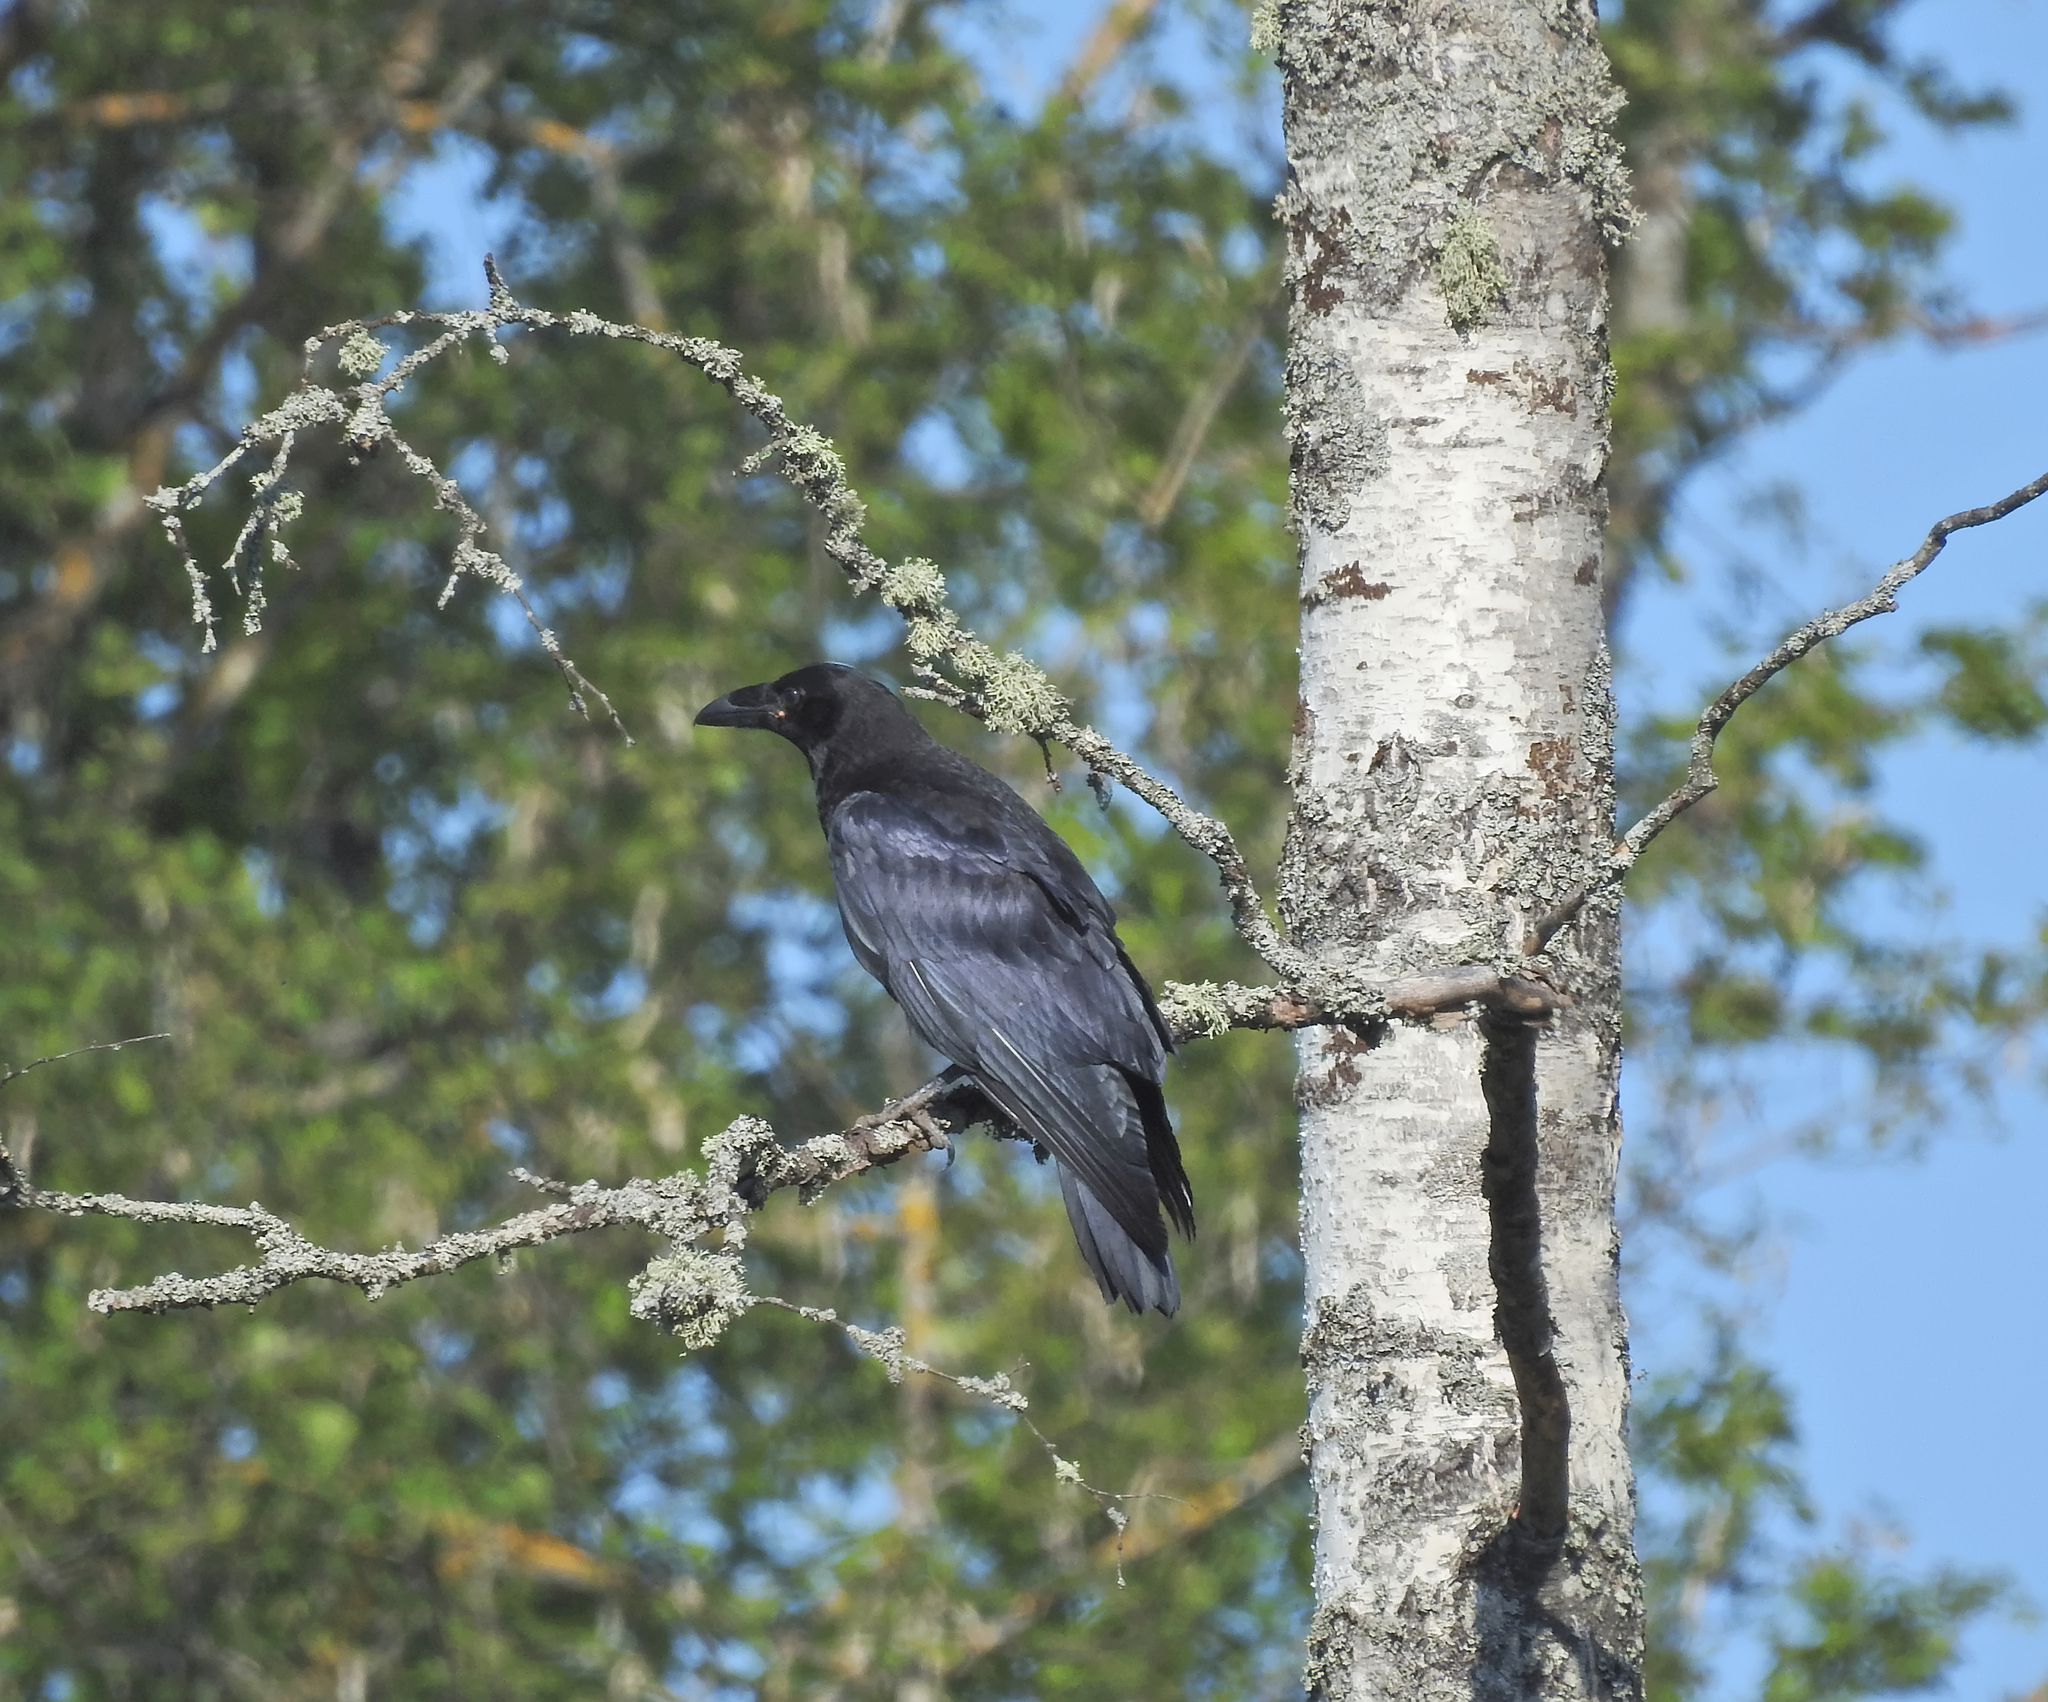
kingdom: Animalia
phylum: Chordata
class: Aves
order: Passeriformes
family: Corvidae
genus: Corvus
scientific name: Corvus corax
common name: Common raven
